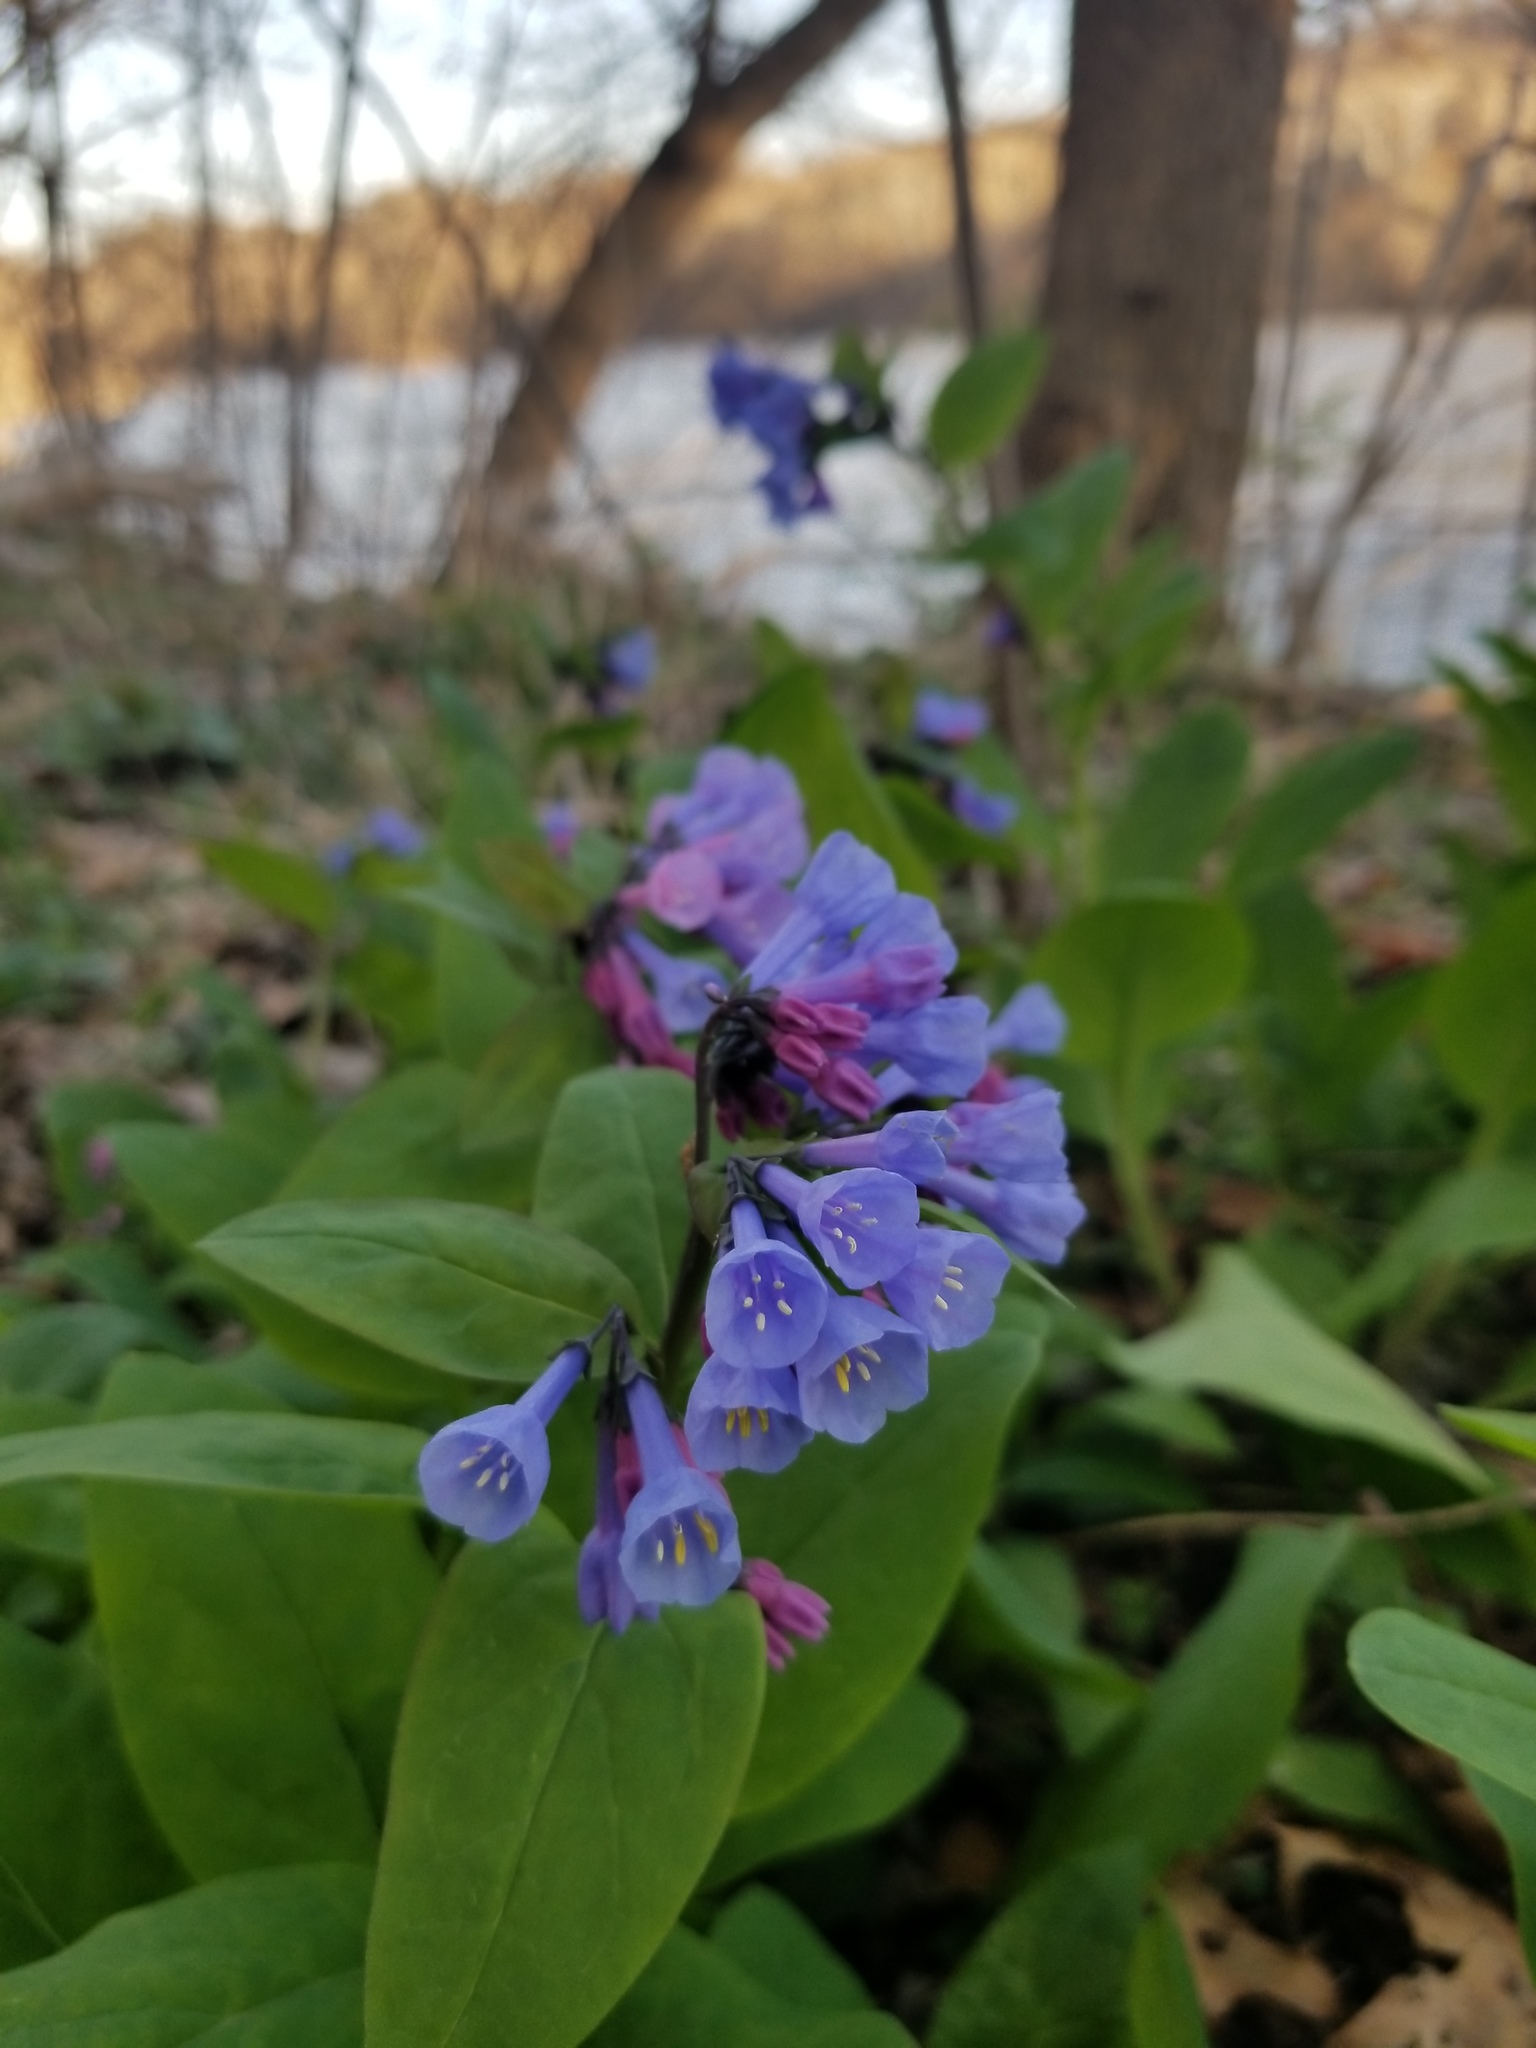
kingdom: Plantae
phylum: Tracheophyta
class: Magnoliopsida
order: Boraginales
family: Boraginaceae
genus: Mertensia
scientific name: Mertensia virginica
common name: Virginia bluebells
